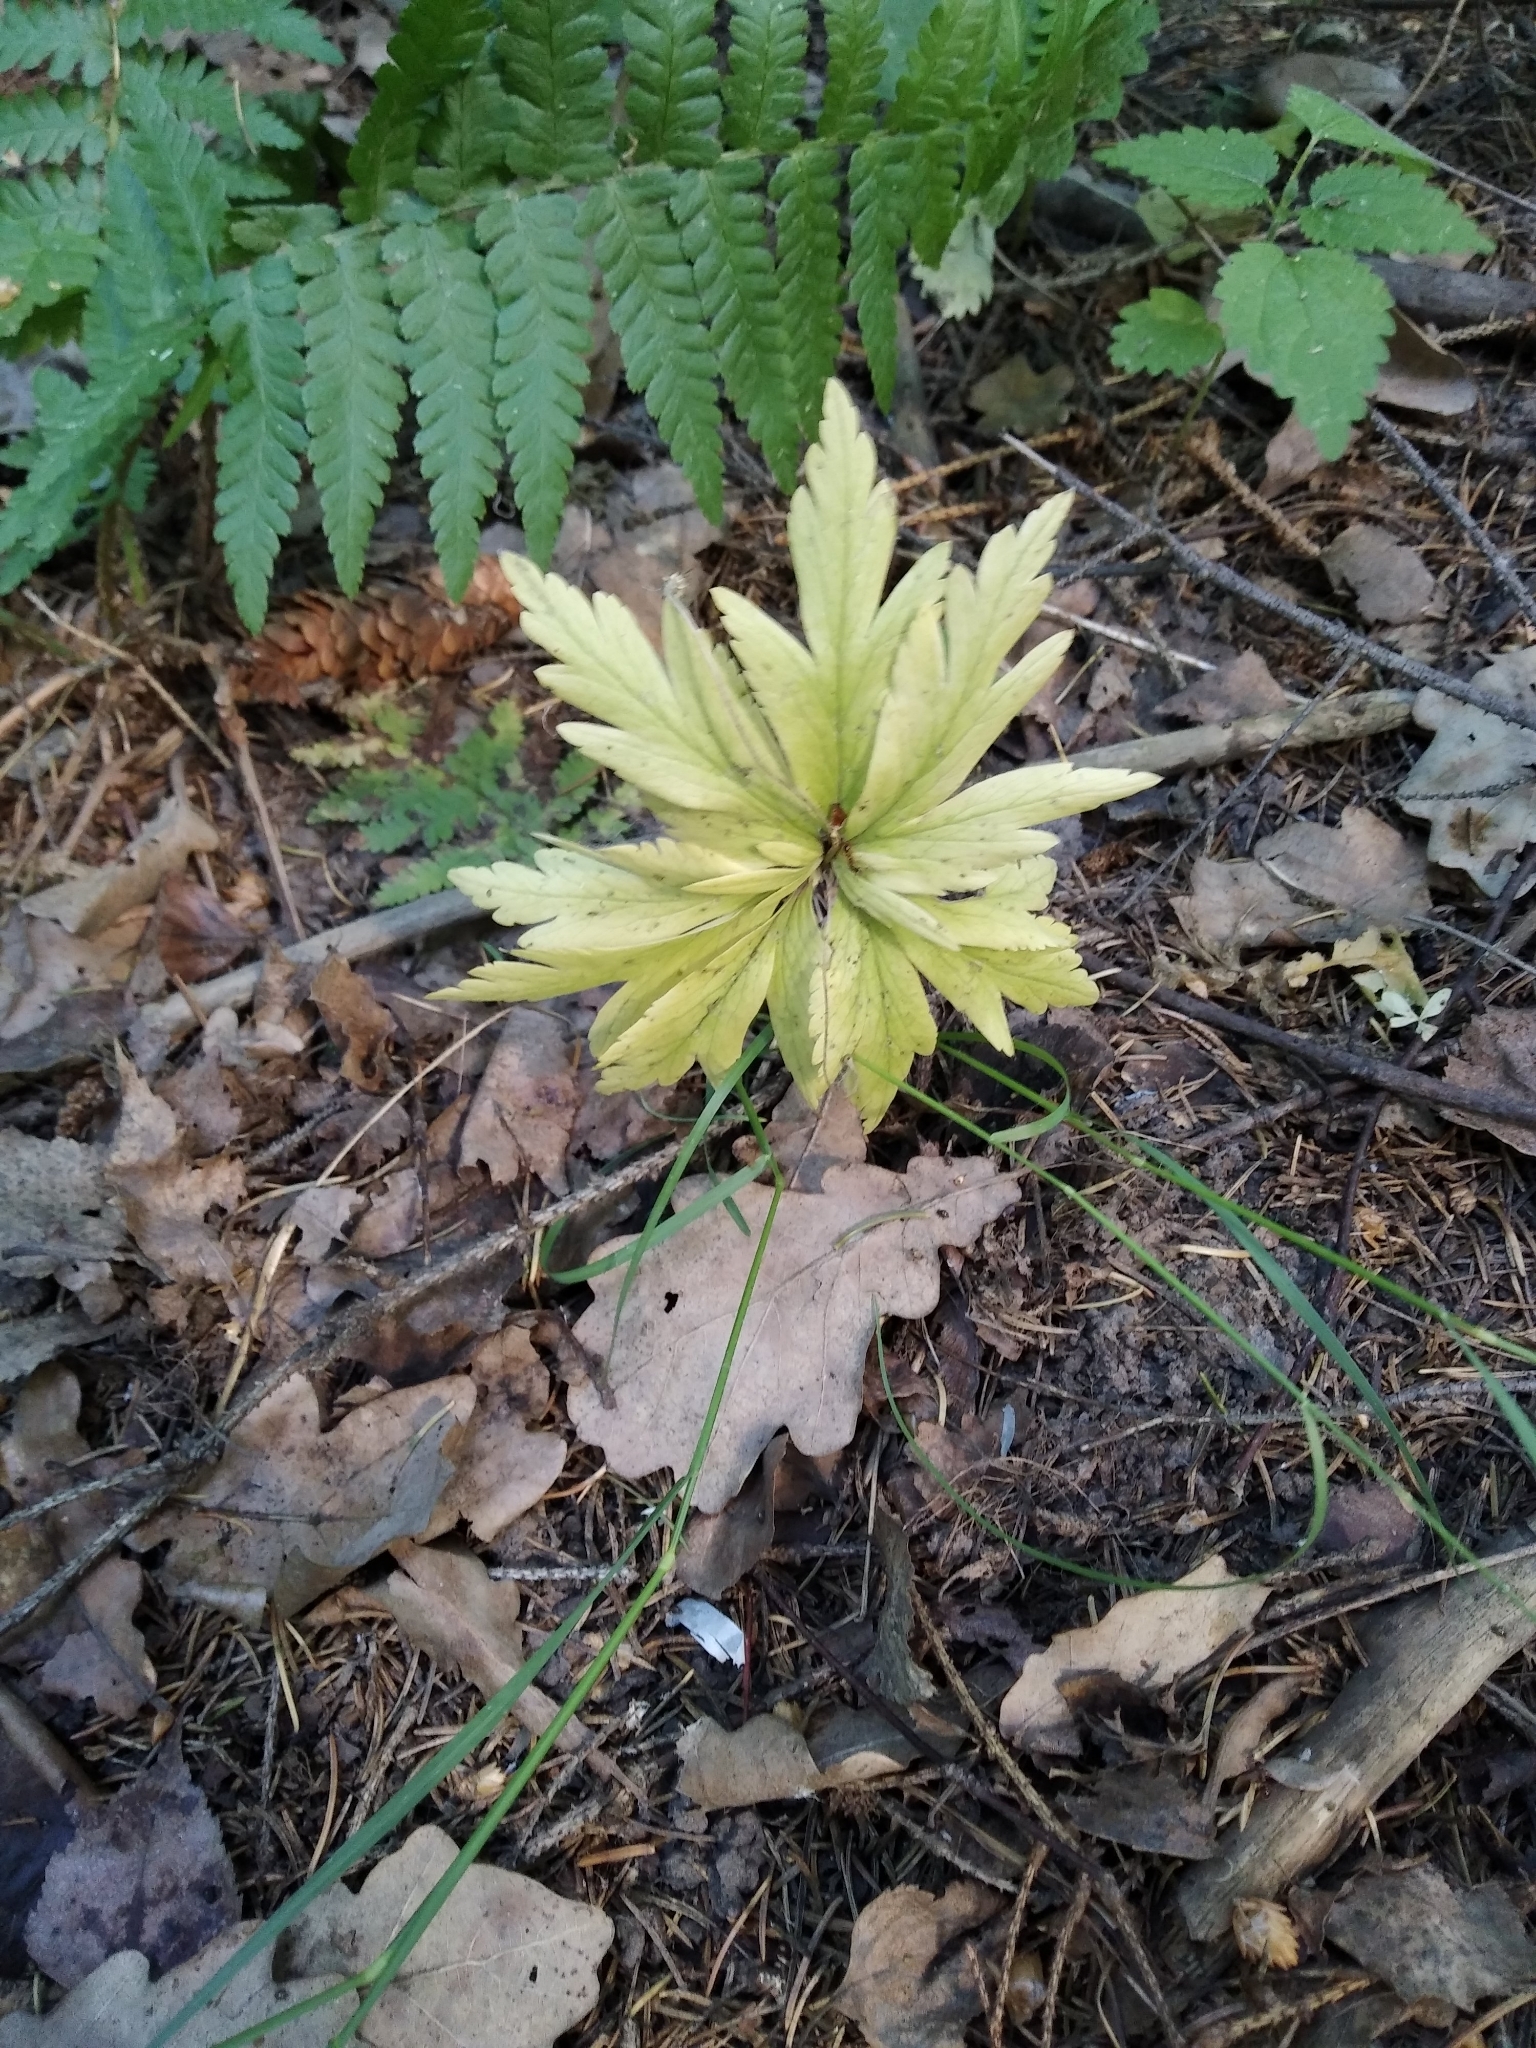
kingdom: Plantae
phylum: Tracheophyta
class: Magnoliopsida
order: Ranunculales
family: Ranunculaceae
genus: Anemone
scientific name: Anemone ranunculoides
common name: Yellow anemone
